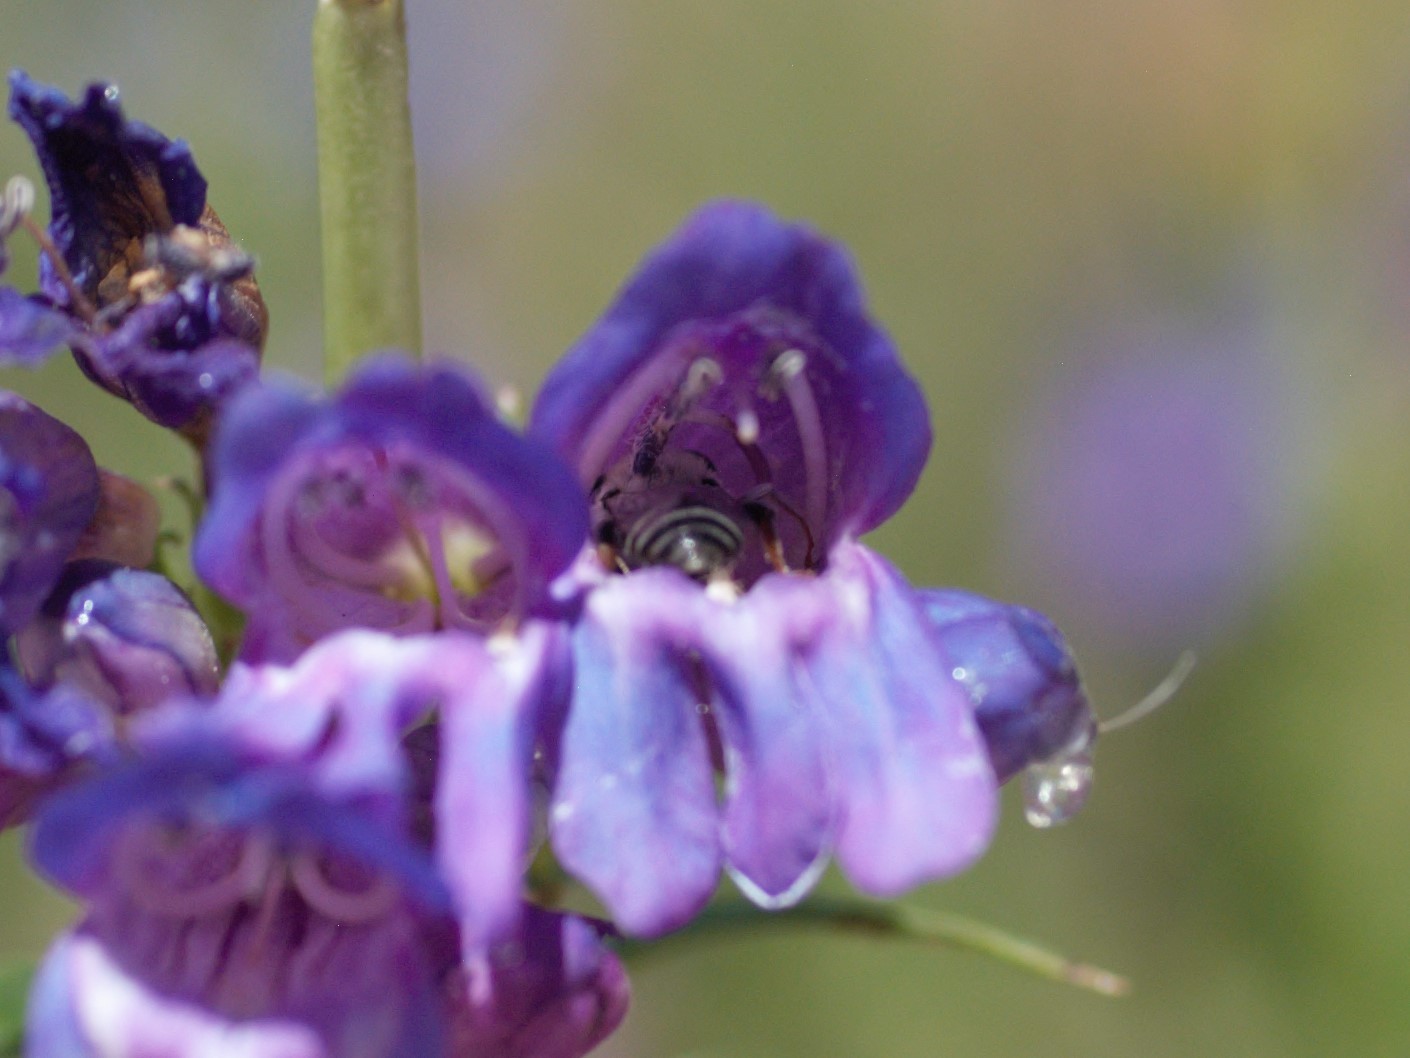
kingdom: Animalia
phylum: Arthropoda
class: Insecta
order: Hymenoptera
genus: Chelostomoides
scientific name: Chelostomoides
